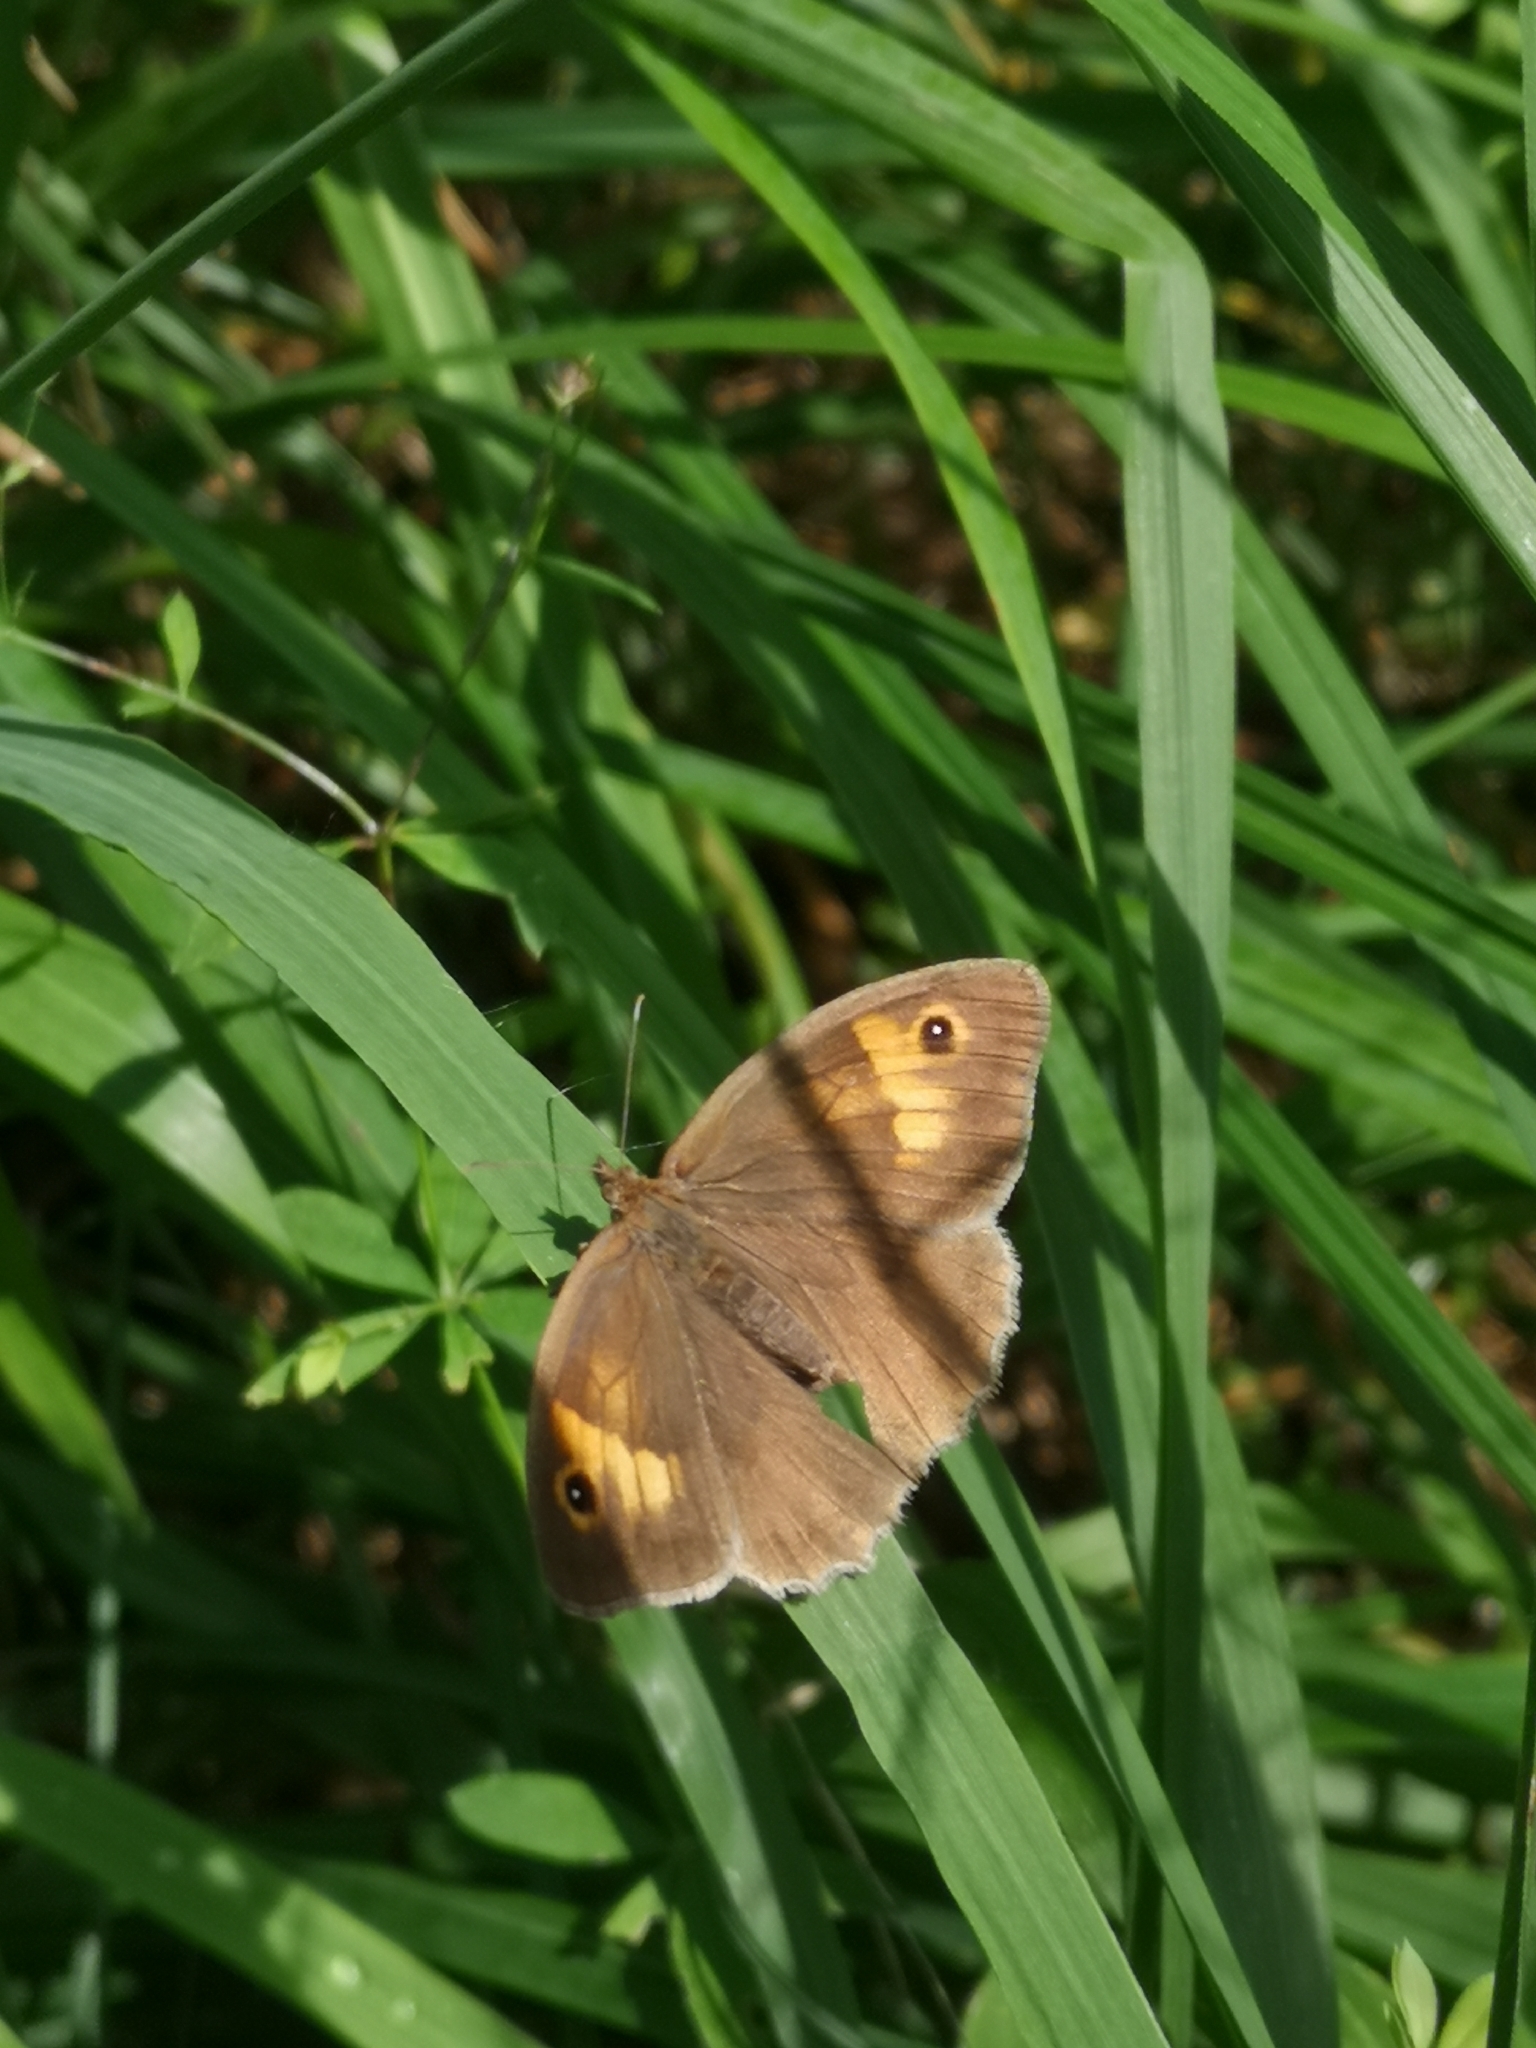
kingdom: Animalia
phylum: Arthropoda
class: Insecta
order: Lepidoptera
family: Nymphalidae
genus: Maniola
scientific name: Maniola jurtina
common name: Meadow brown
